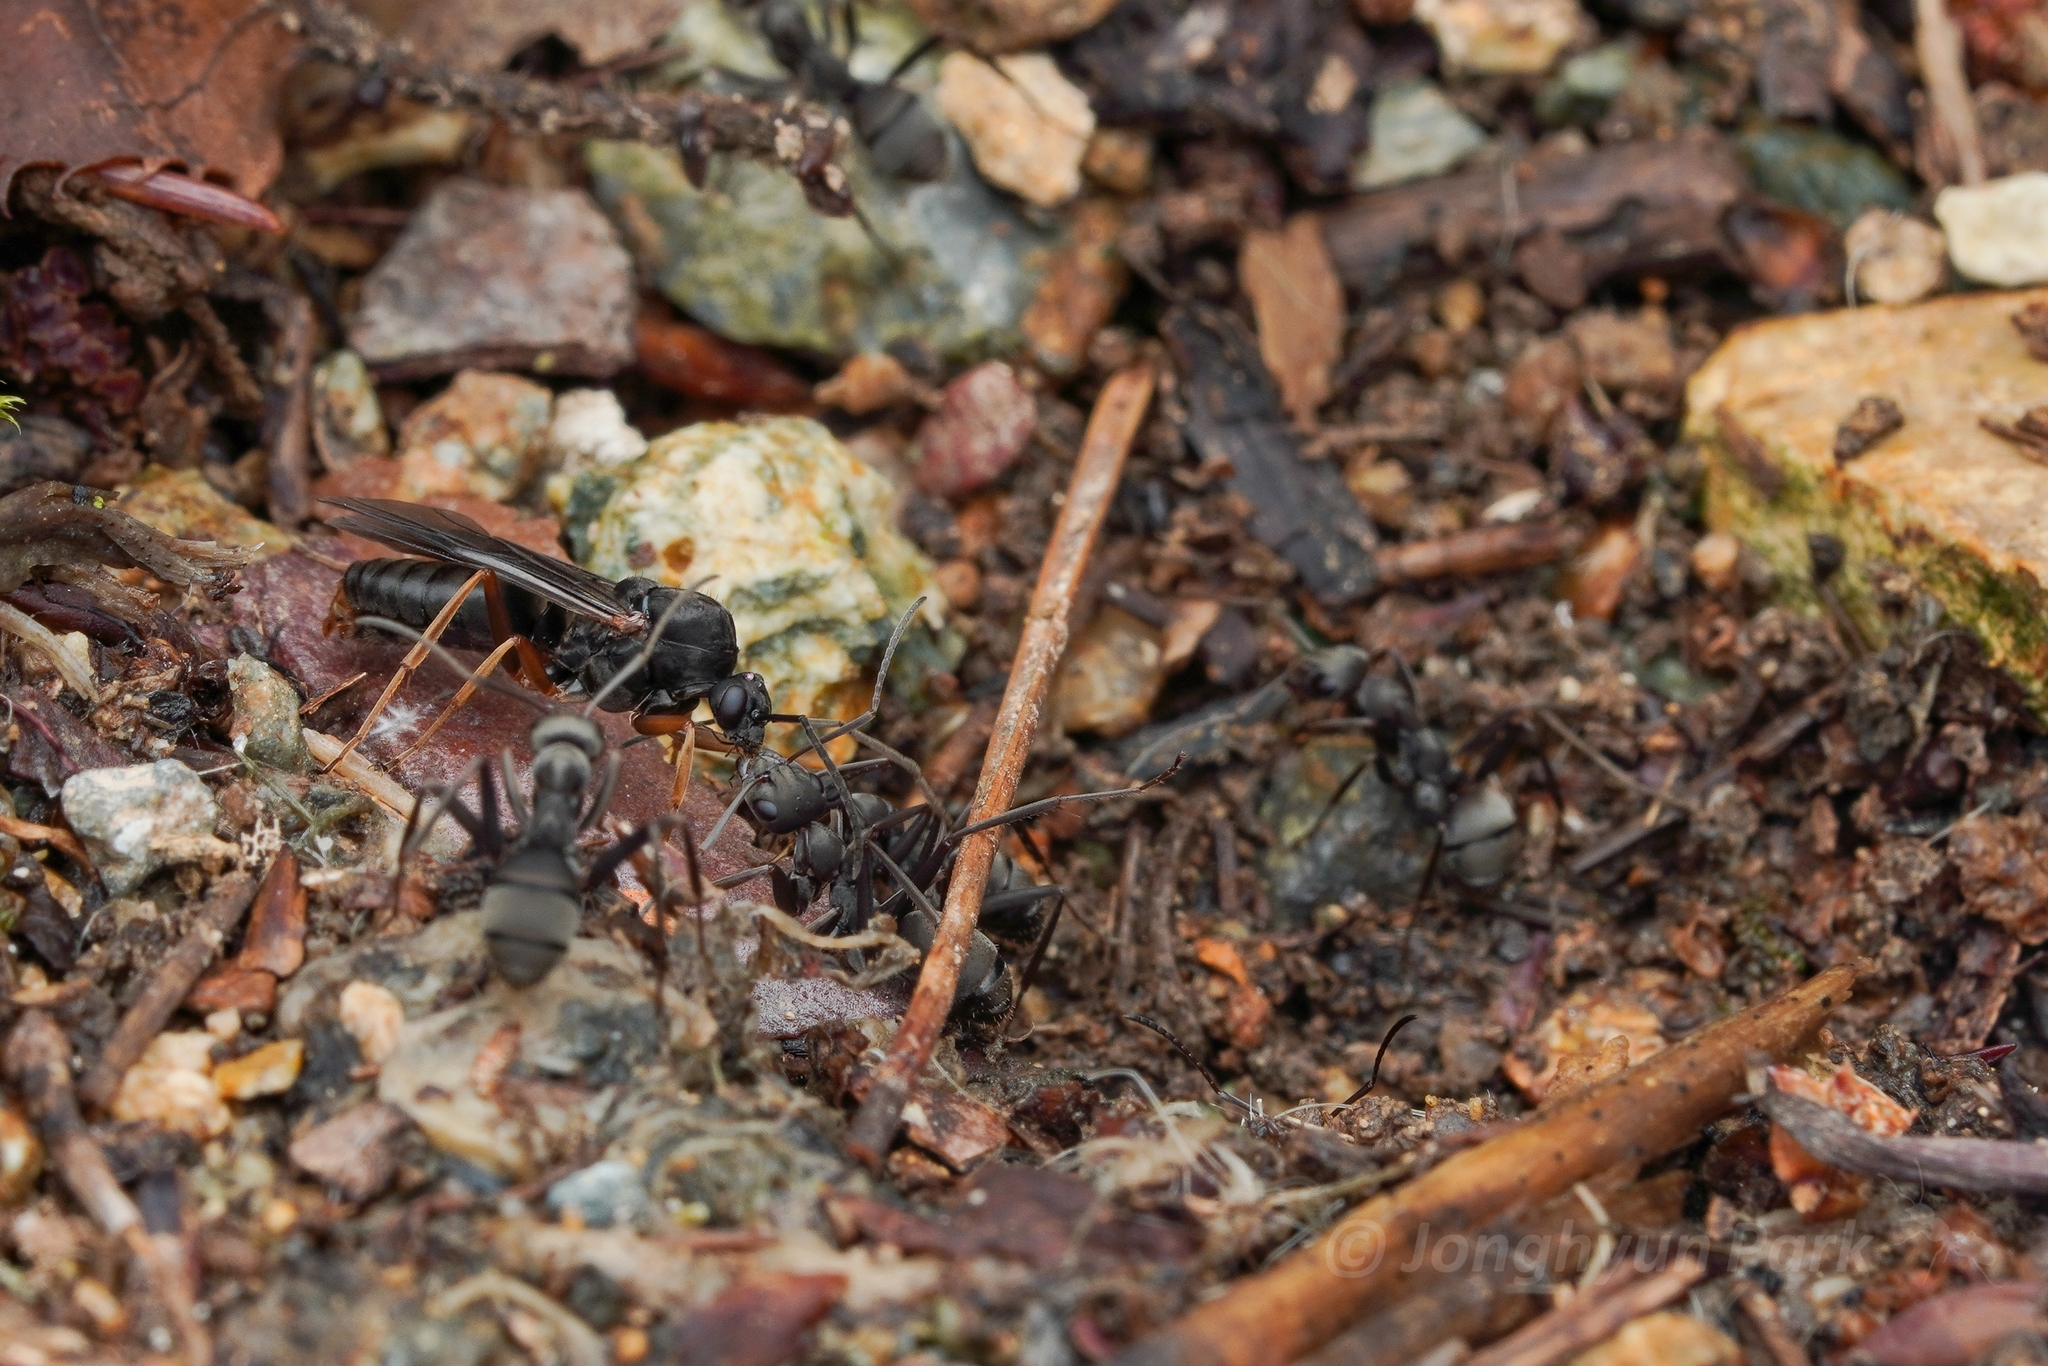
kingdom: Animalia
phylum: Arthropoda
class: Insecta
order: Hymenoptera
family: Formicidae
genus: Formica
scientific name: Formica japonica
